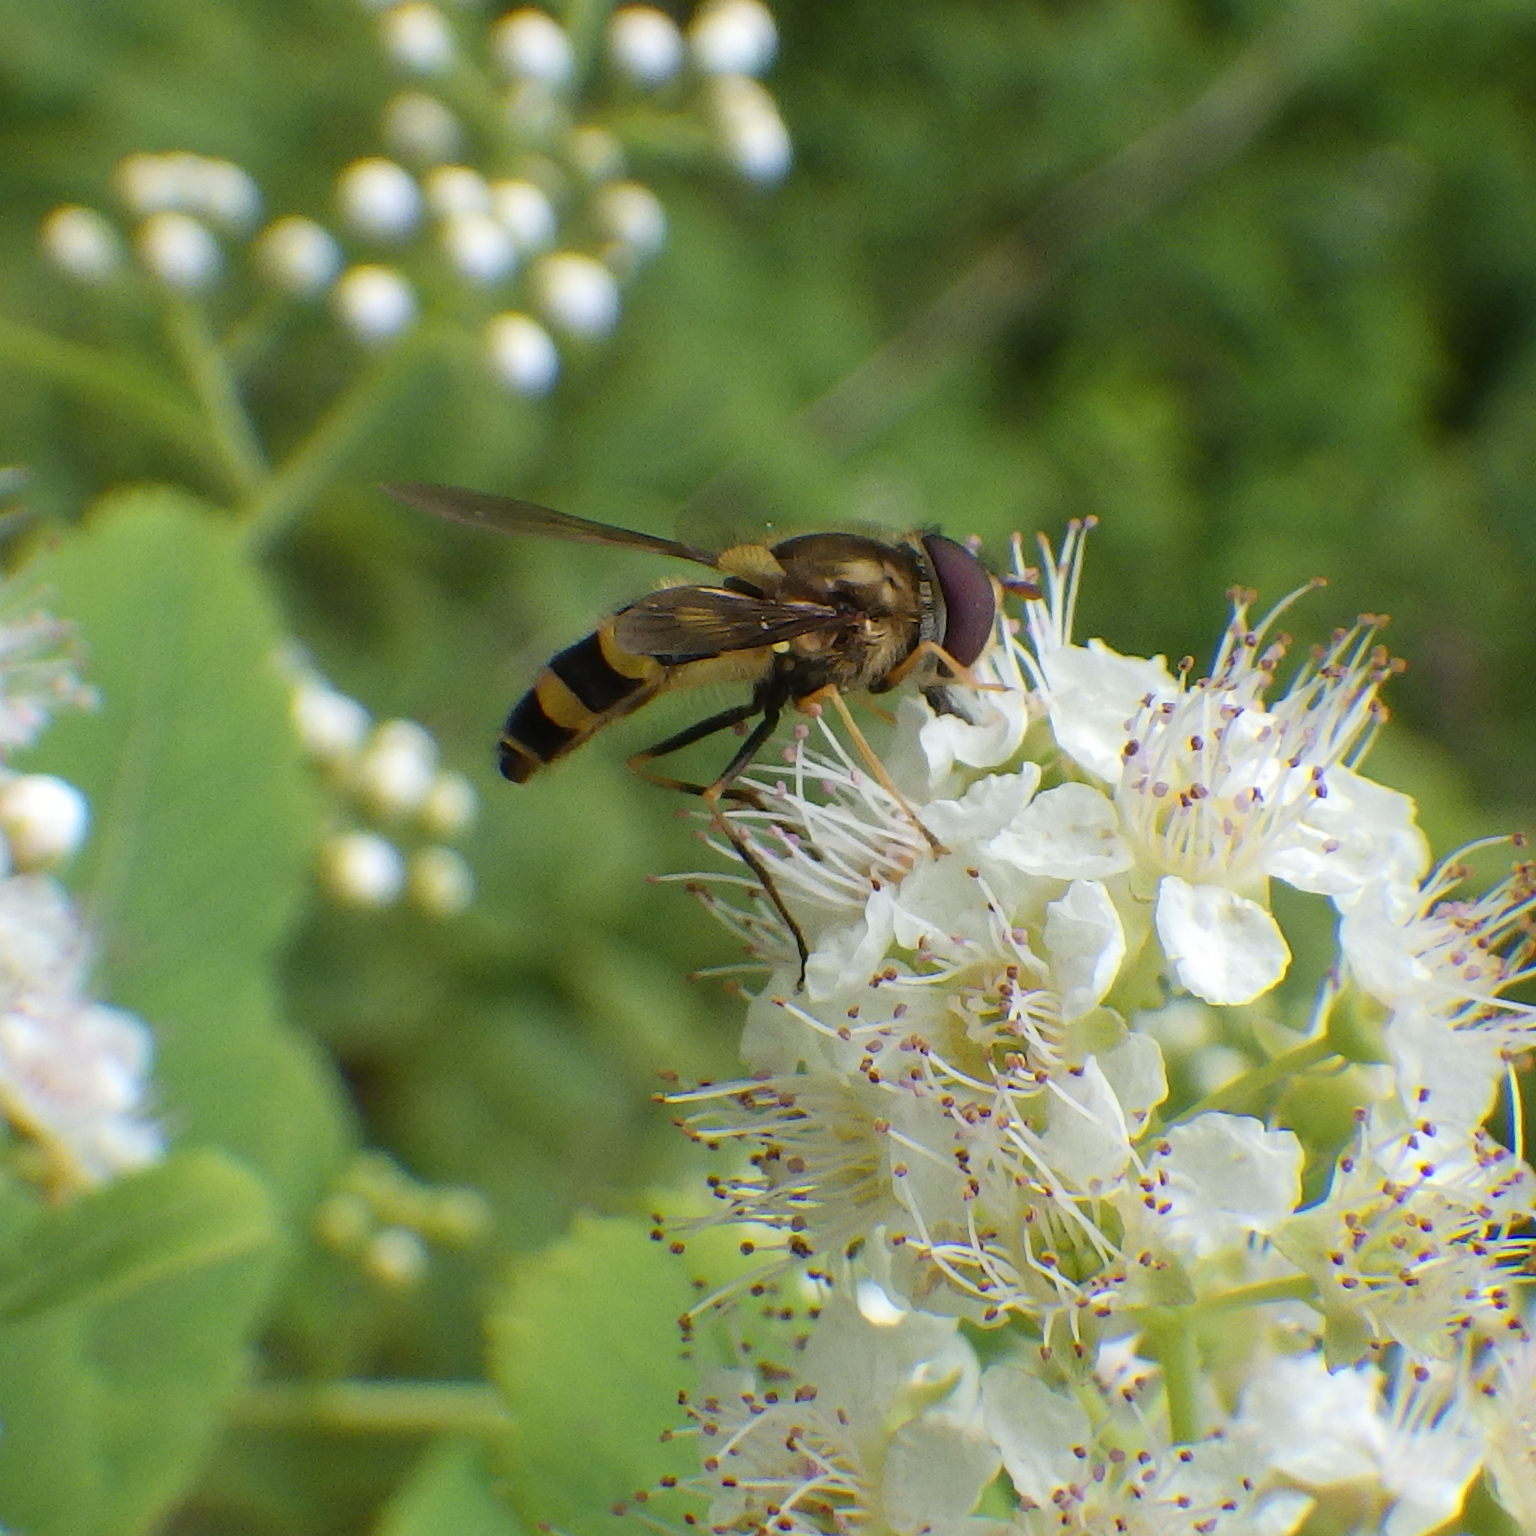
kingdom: Animalia
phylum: Arthropoda
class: Insecta
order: Diptera
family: Syrphidae
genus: Eupeodes
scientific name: Eupeodes
